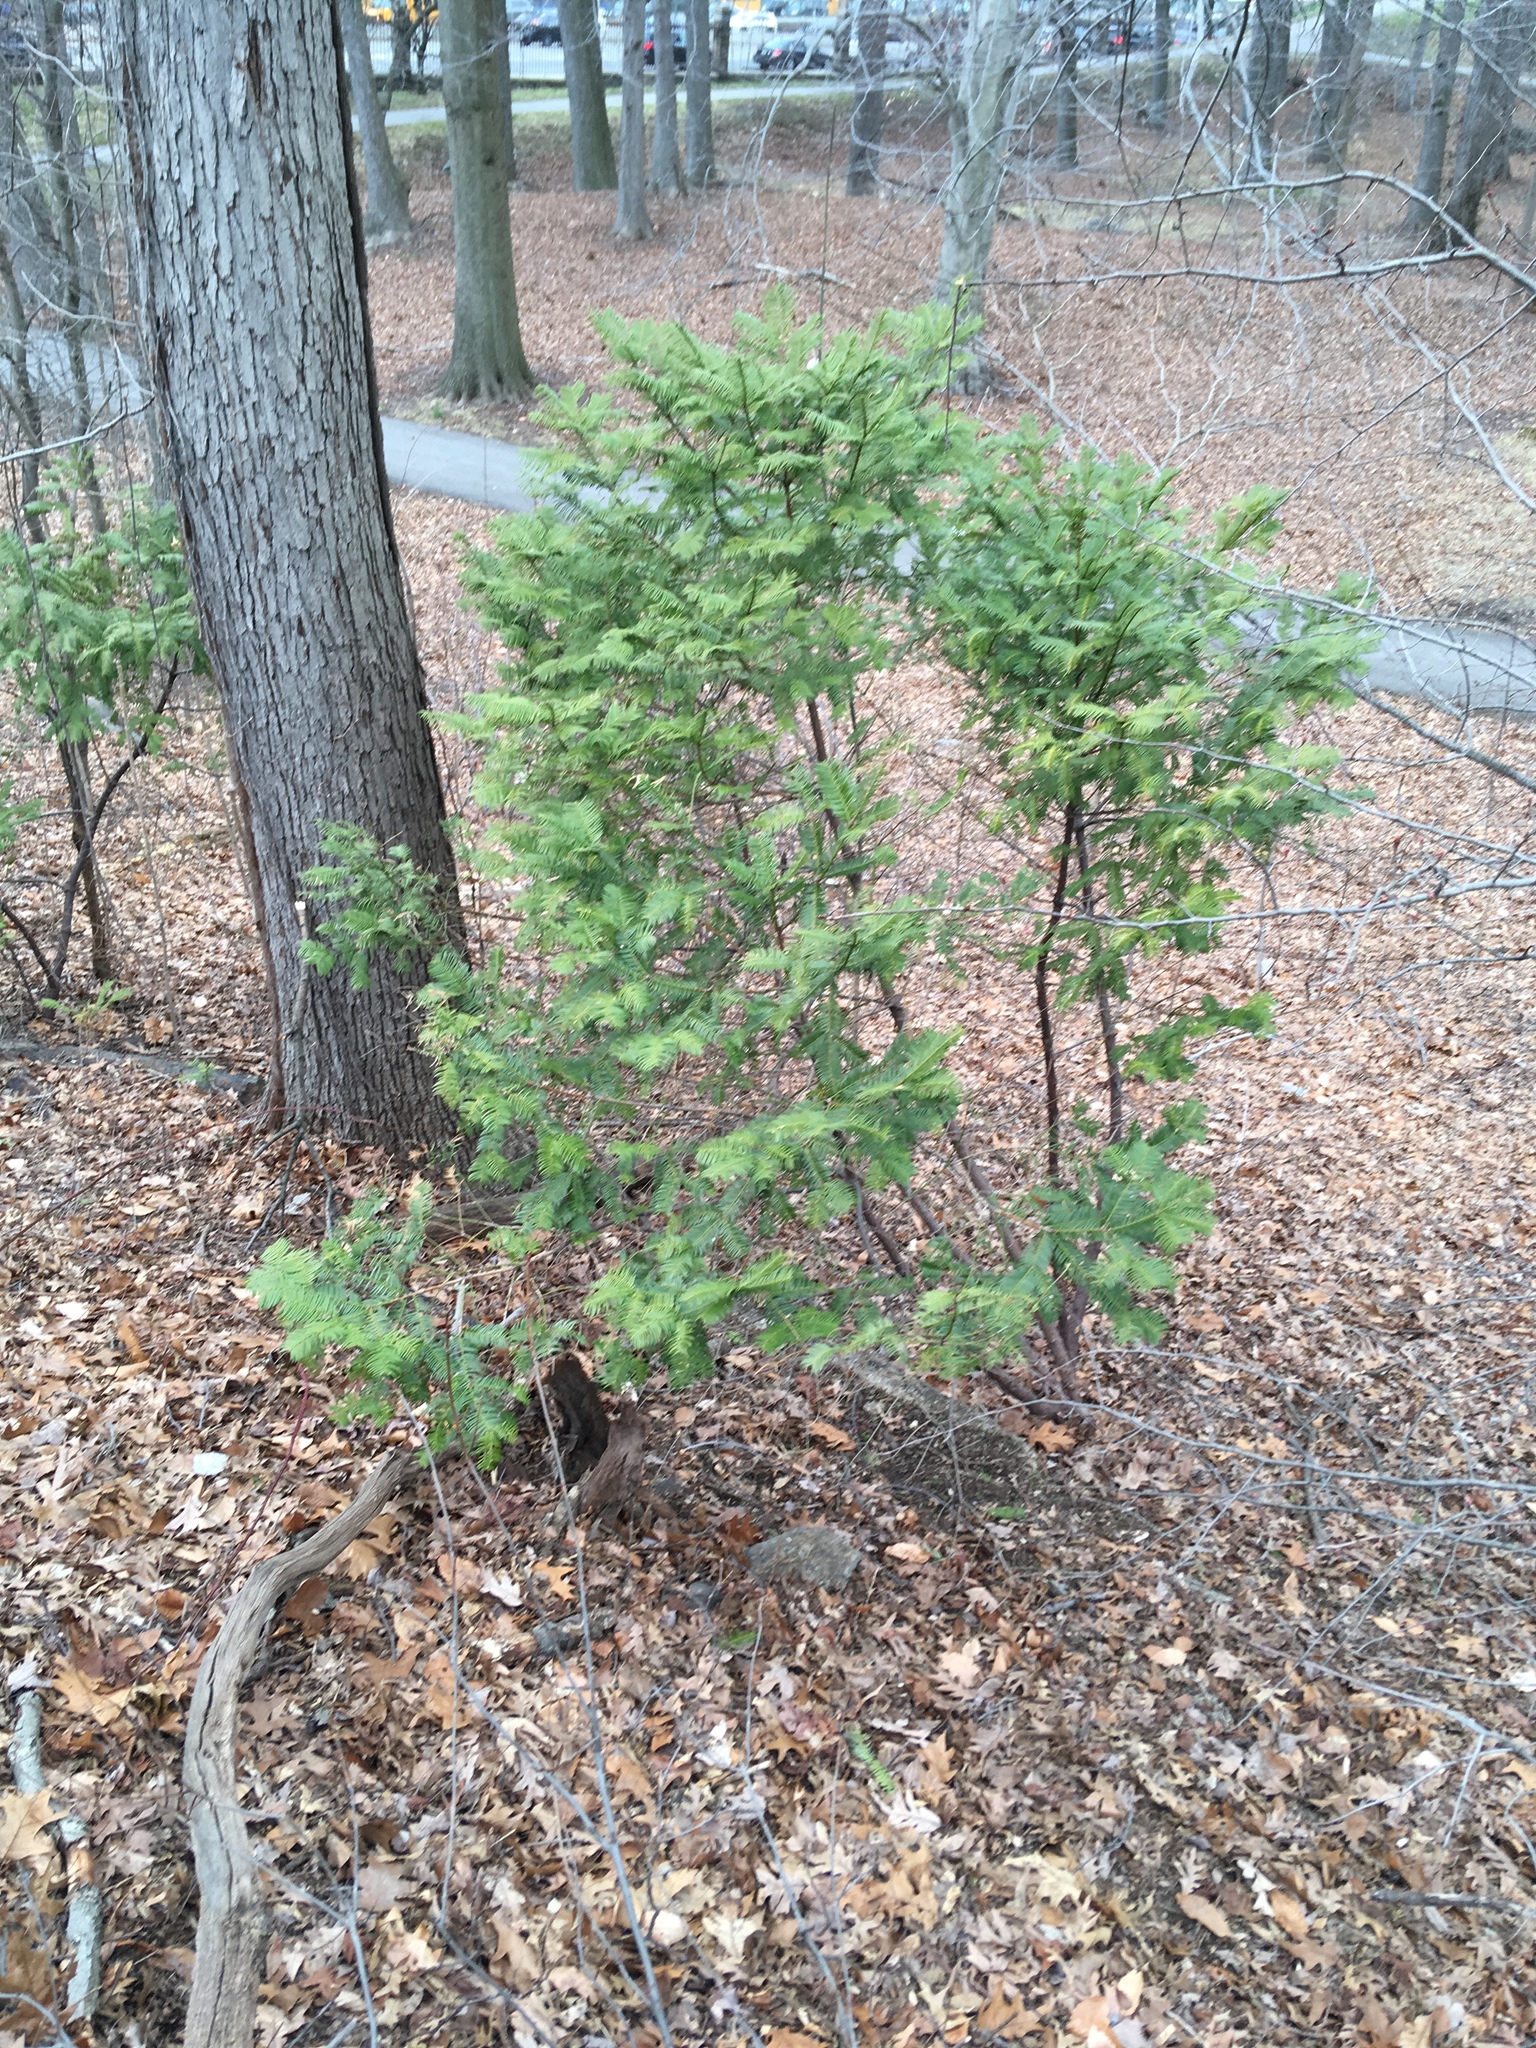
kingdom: Plantae
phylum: Tracheophyta
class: Pinopsida
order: Pinales
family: Cephalotaxaceae
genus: Cephalotaxus
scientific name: Cephalotaxus harringtonia
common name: Japanese plum-yew
